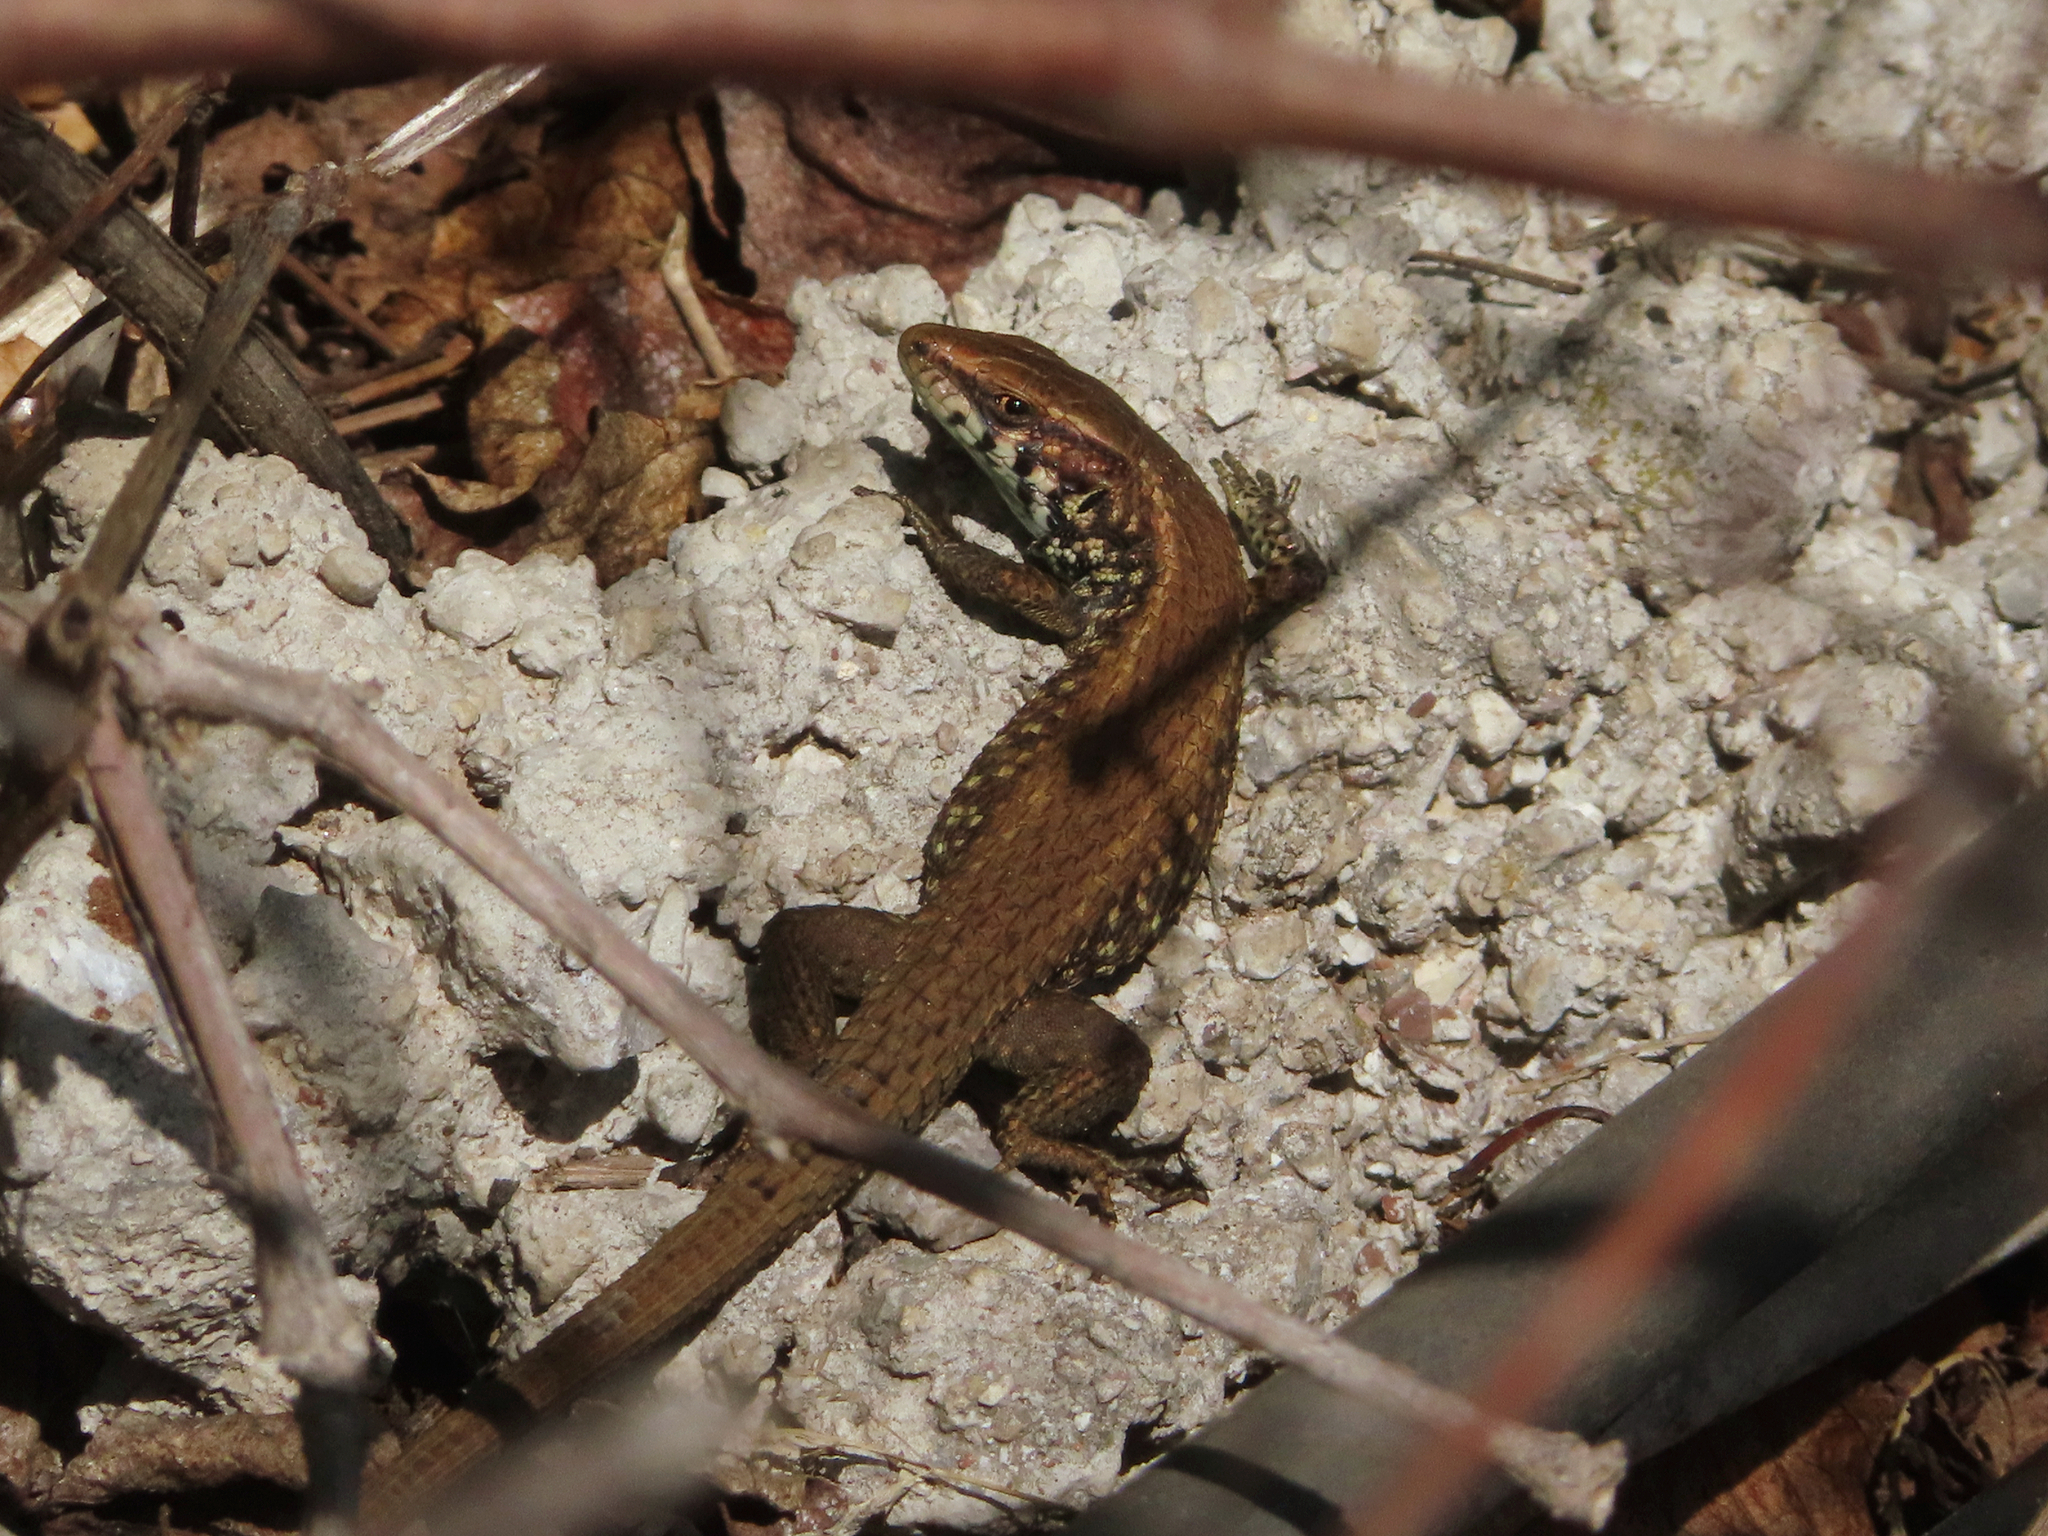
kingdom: Animalia
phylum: Chordata
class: Squamata
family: Lacertidae
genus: Algyroides
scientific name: Algyroides moreoticus
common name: Greek algyroides
